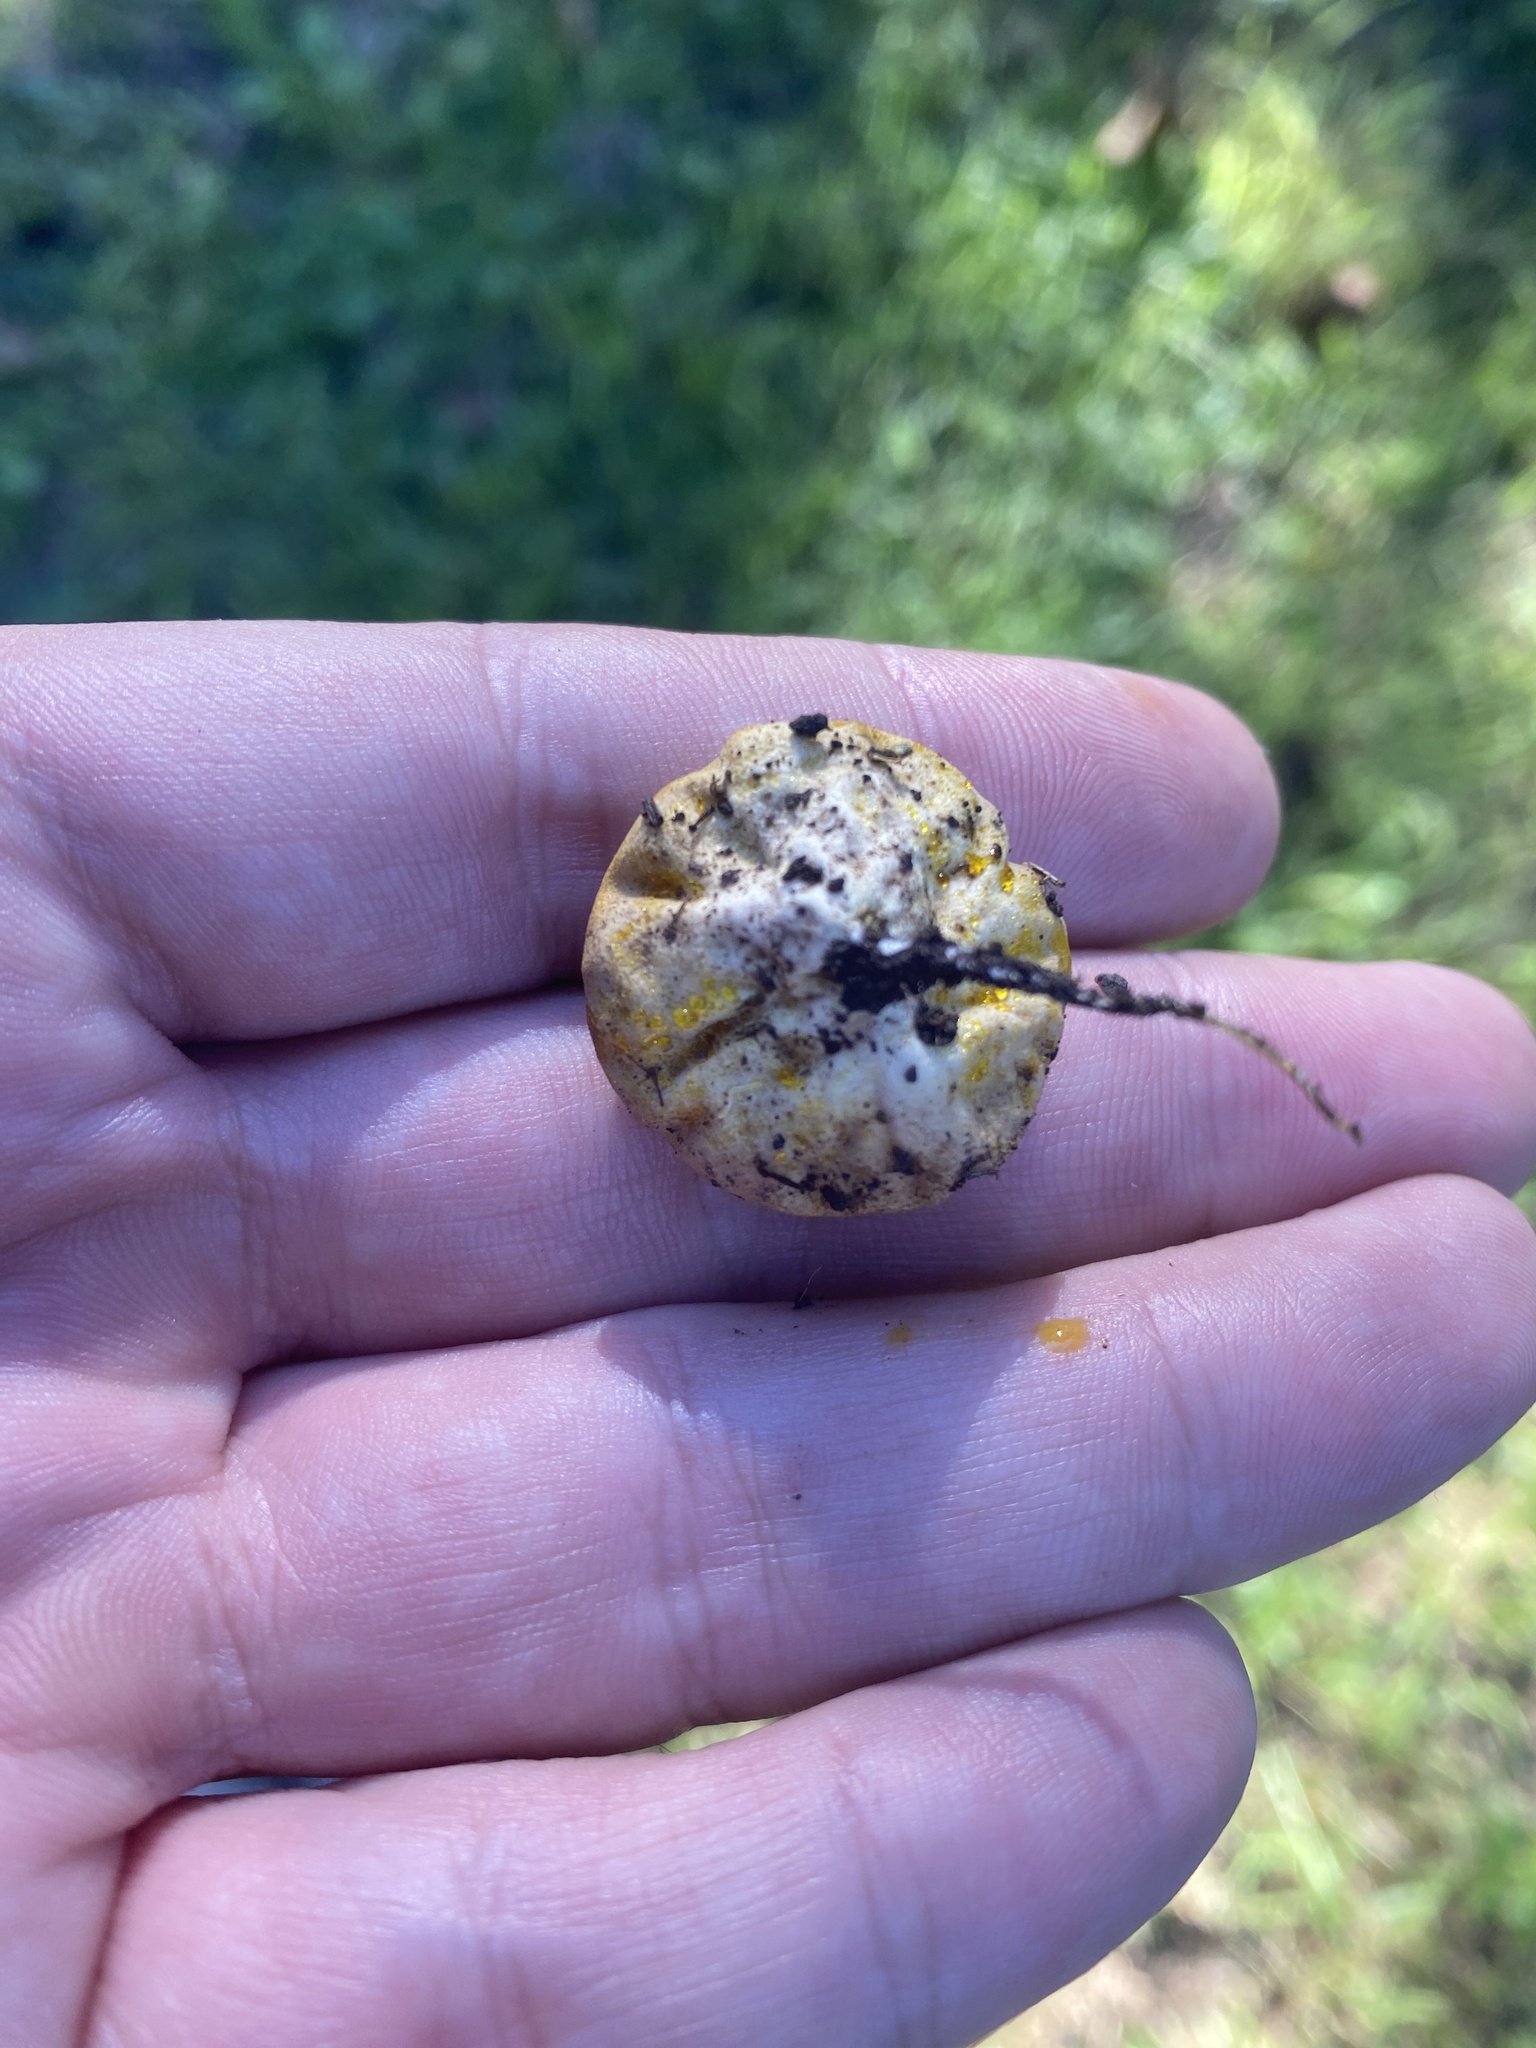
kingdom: Fungi
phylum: Basidiomycota
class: Agaricomycetes
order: Agaricales
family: Lycoperdaceae
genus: Calvatia
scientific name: Calvatia candida
